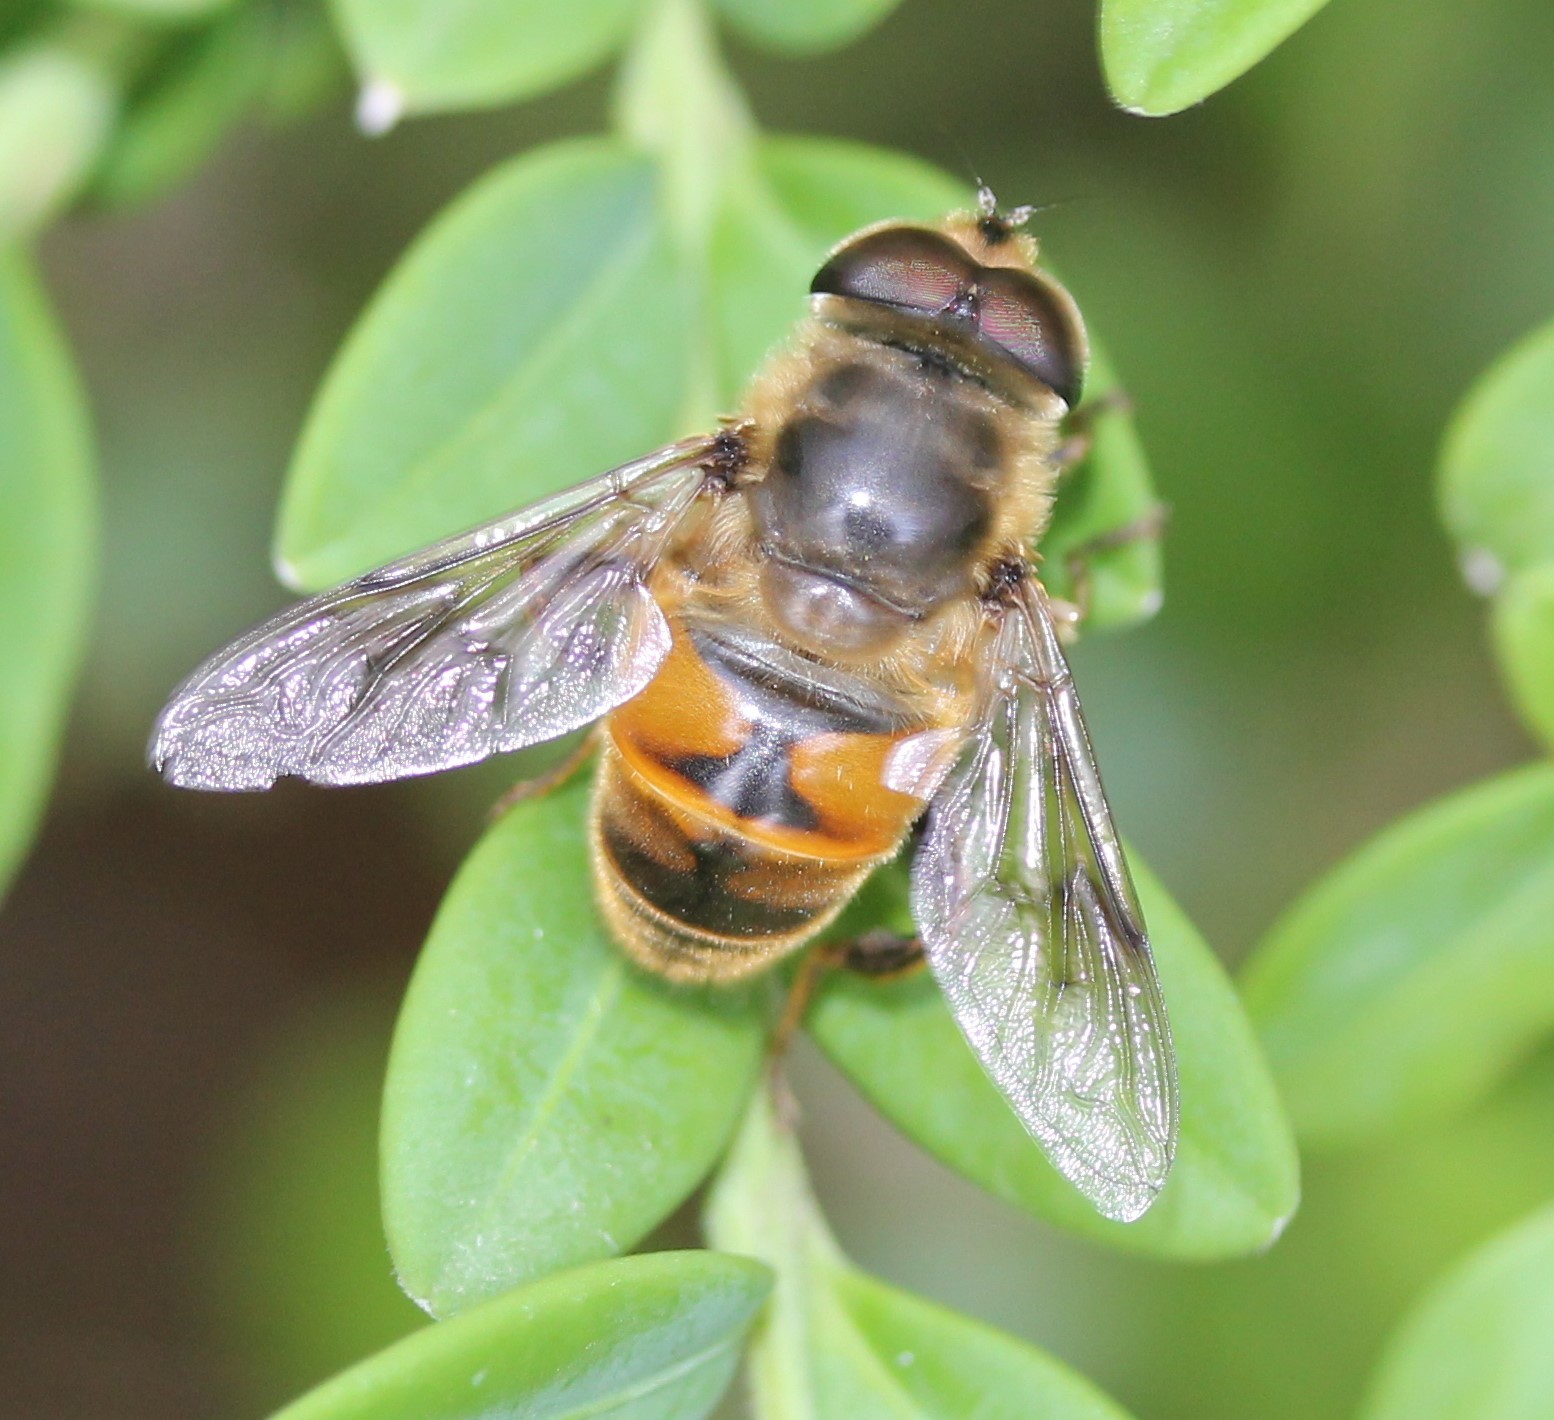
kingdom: Animalia
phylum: Arthropoda
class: Insecta
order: Diptera
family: Syrphidae
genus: Eristalis
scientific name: Eristalis tenax
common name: Drone fly
